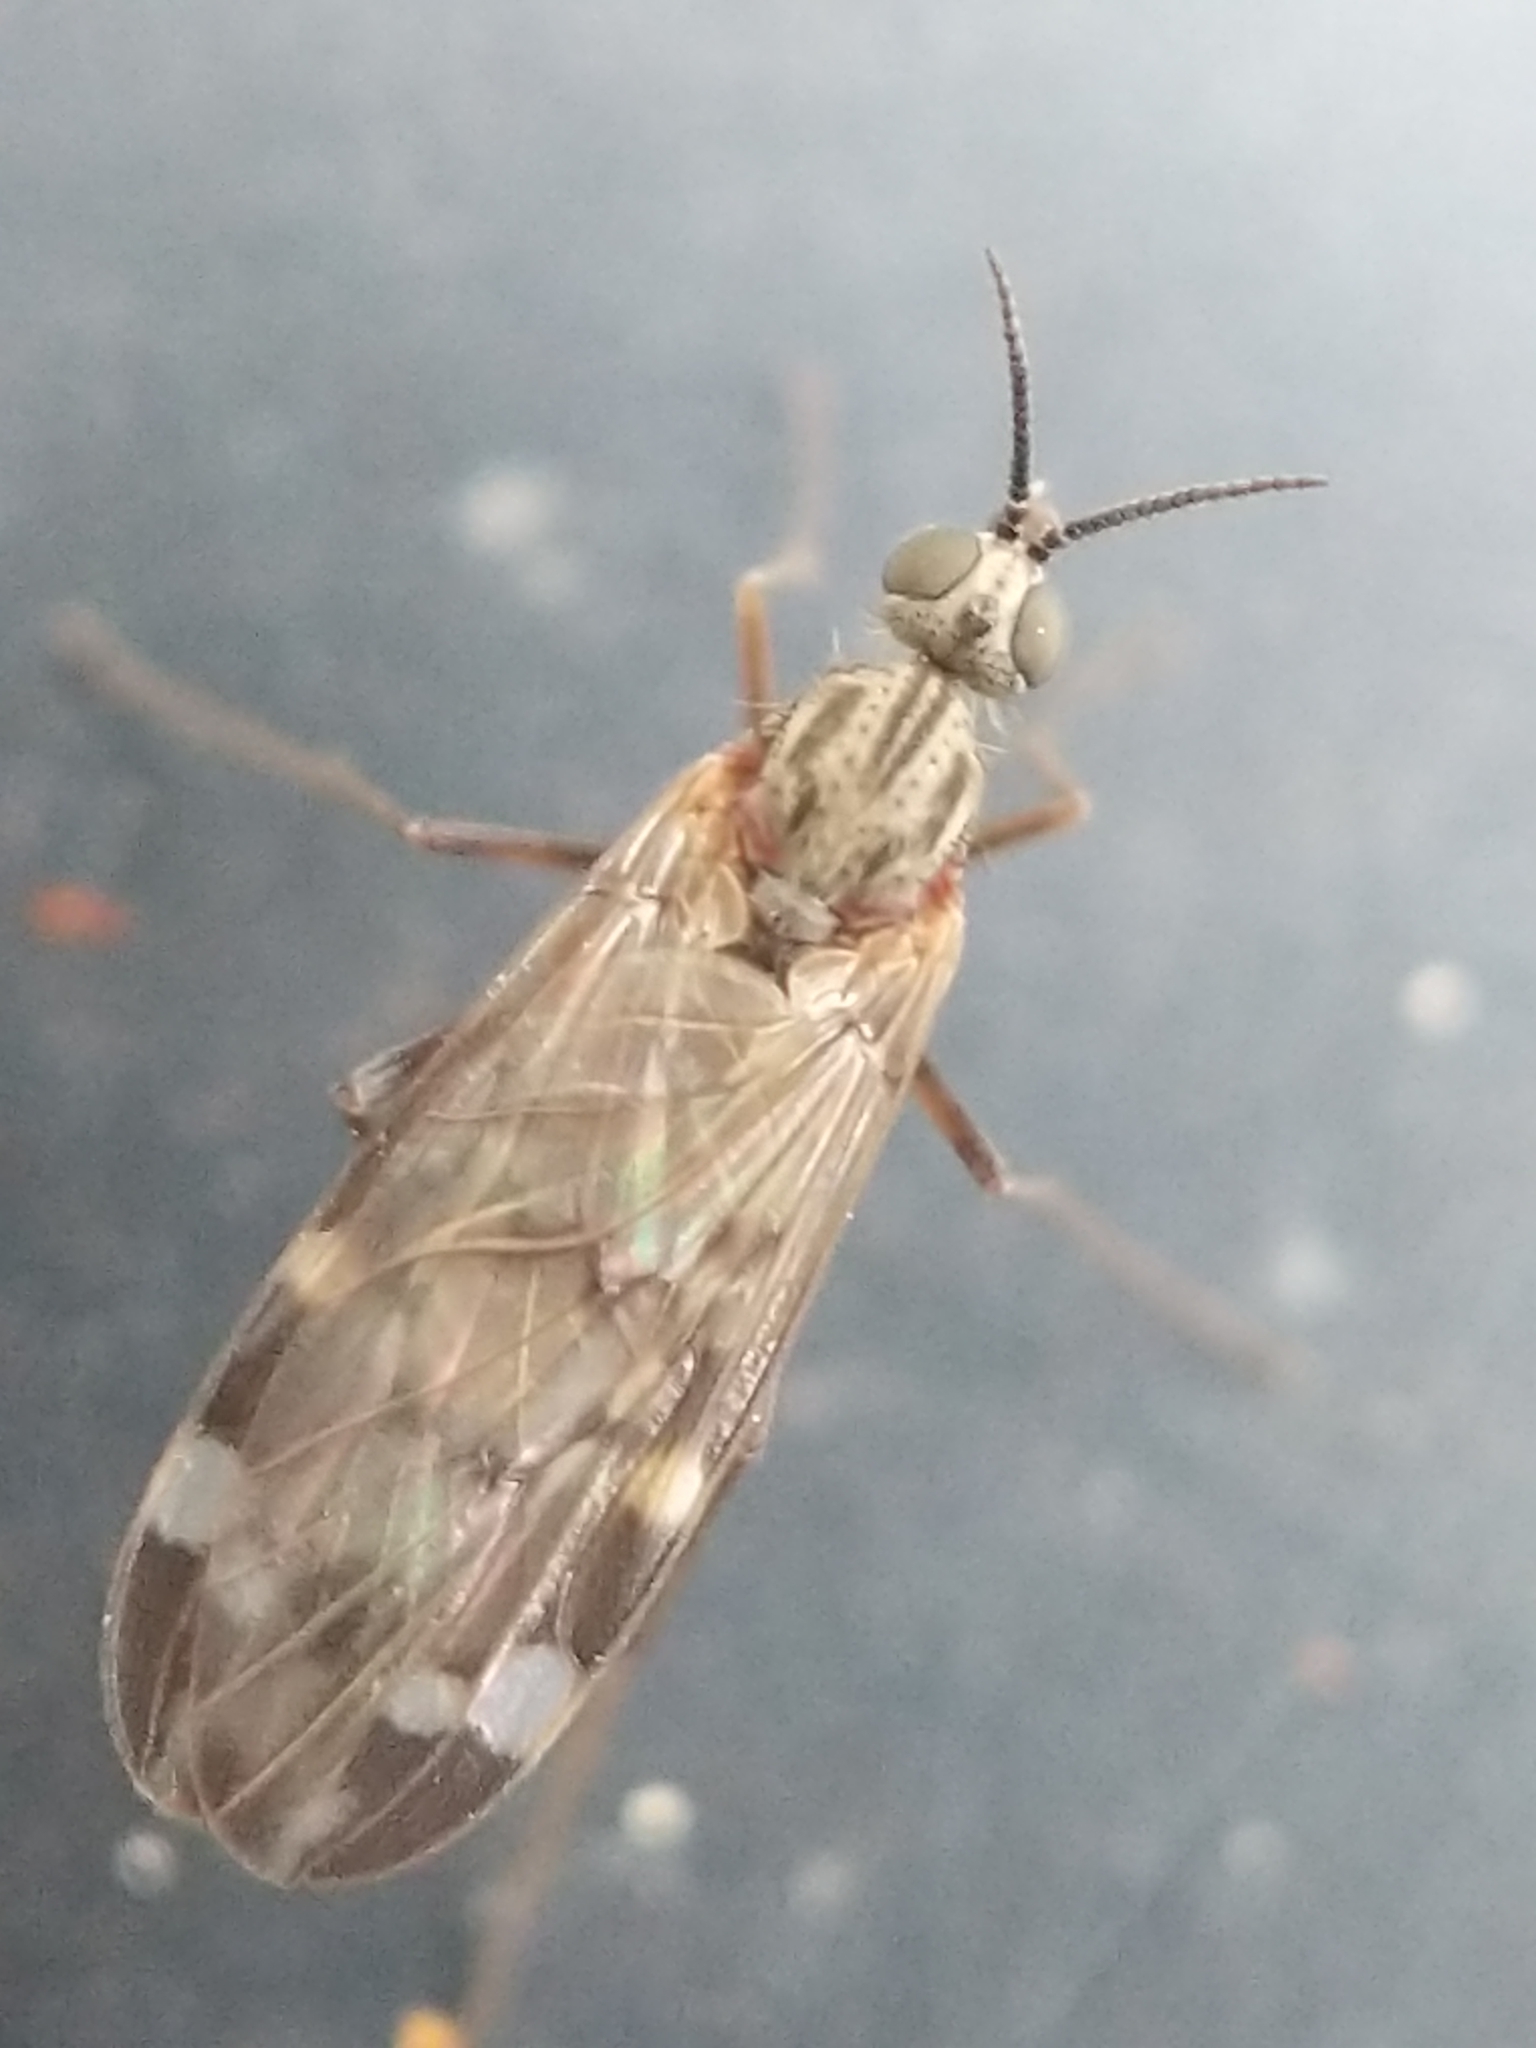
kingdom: Animalia
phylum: Arthropoda
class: Insecta
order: Diptera
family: Anisopodidae
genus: Sylvicola
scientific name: Sylvicola alternata
